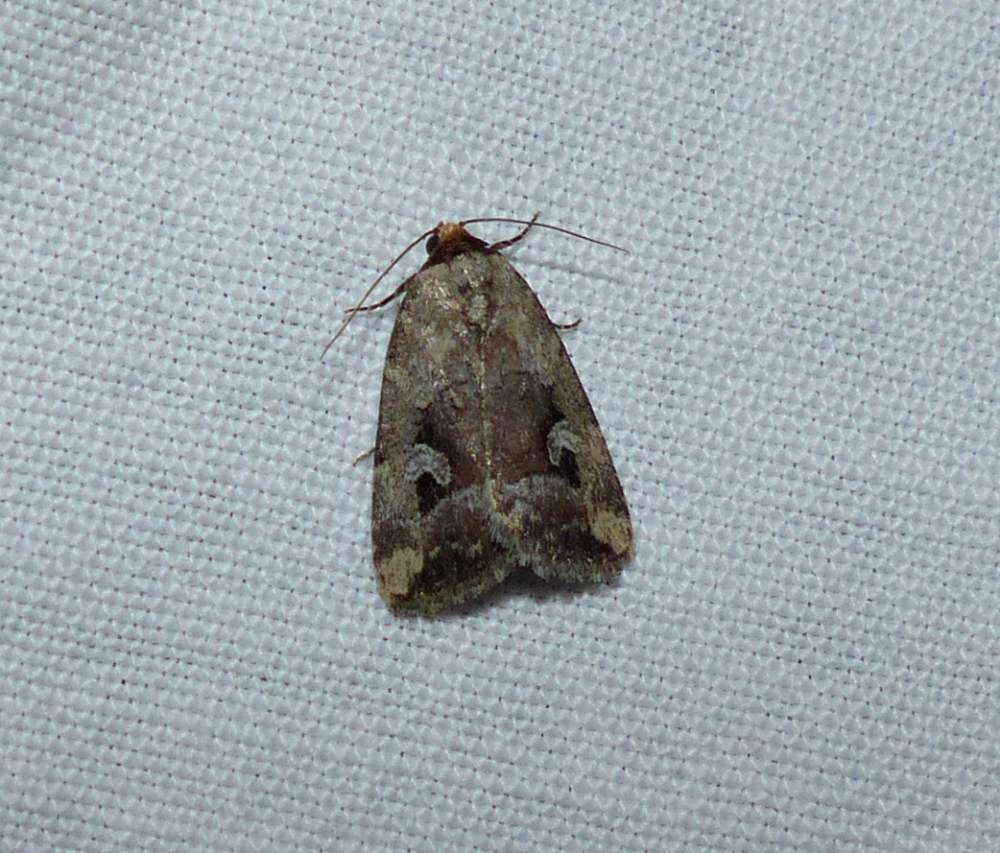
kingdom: Animalia
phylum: Arthropoda
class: Insecta
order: Lepidoptera
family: Noctuidae
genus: Elaphria
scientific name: Elaphria alapallida
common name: Pale-winged midget
